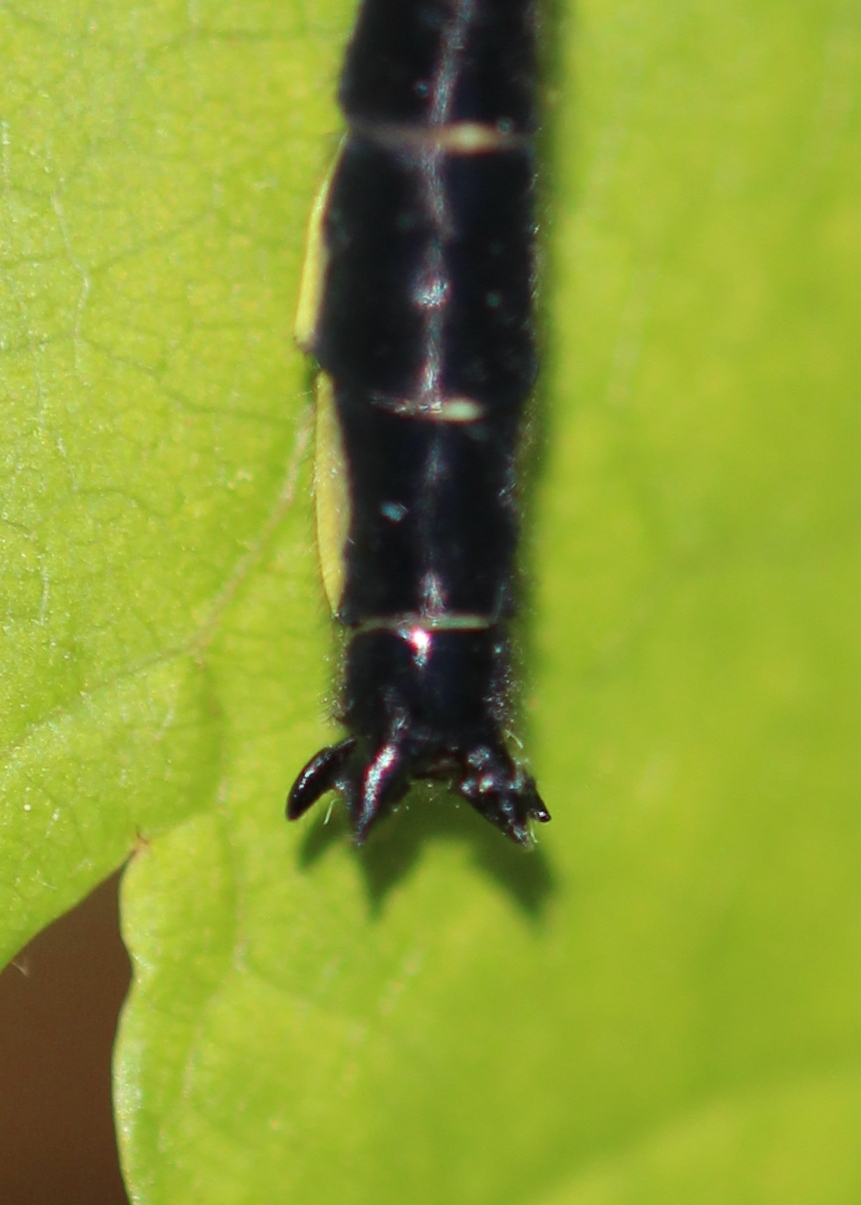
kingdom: Animalia
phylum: Arthropoda
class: Insecta
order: Odonata
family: Gomphidae
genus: Phanogomphus
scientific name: Phanogomphus borealis
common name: Beaverpond clubtail
